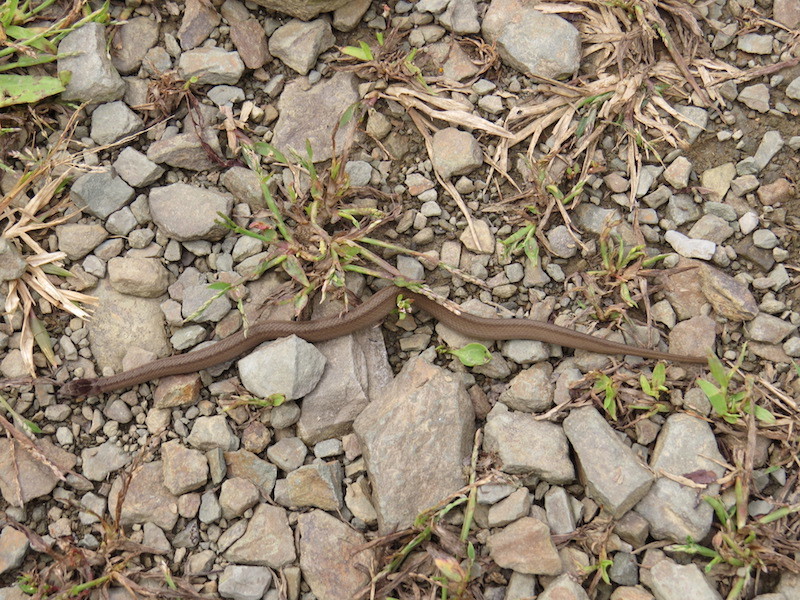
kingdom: Animalia
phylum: Chordata
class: Squamata
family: Colubridae
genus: Storeria
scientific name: Storeria dekayi
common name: (dekay’s) brown snake
